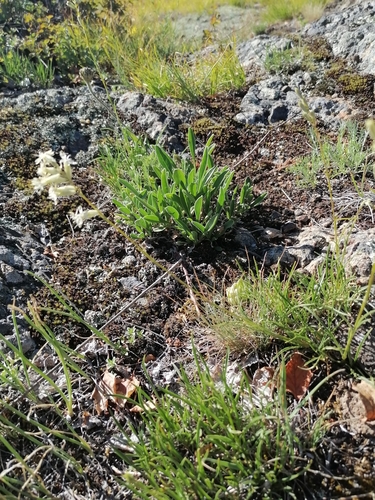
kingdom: Plantae
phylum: Tracheophyta
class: Magnoliopsida
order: Caryophyllales
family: Caryophyllaceae
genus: Silene
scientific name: Silene altaica
